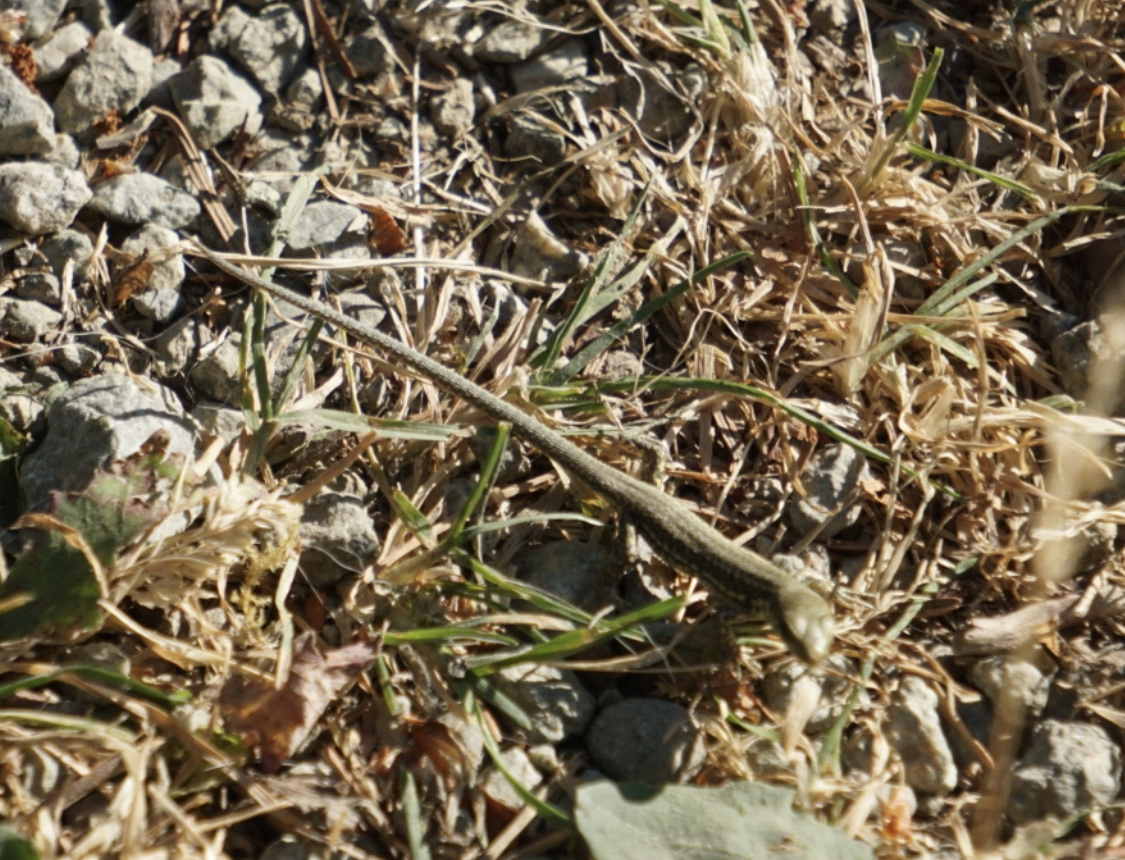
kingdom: Animalia
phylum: Chordata
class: Squamata
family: Lacertidae
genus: Podarcis
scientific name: Podarcis muralis
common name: Common wall lizard
